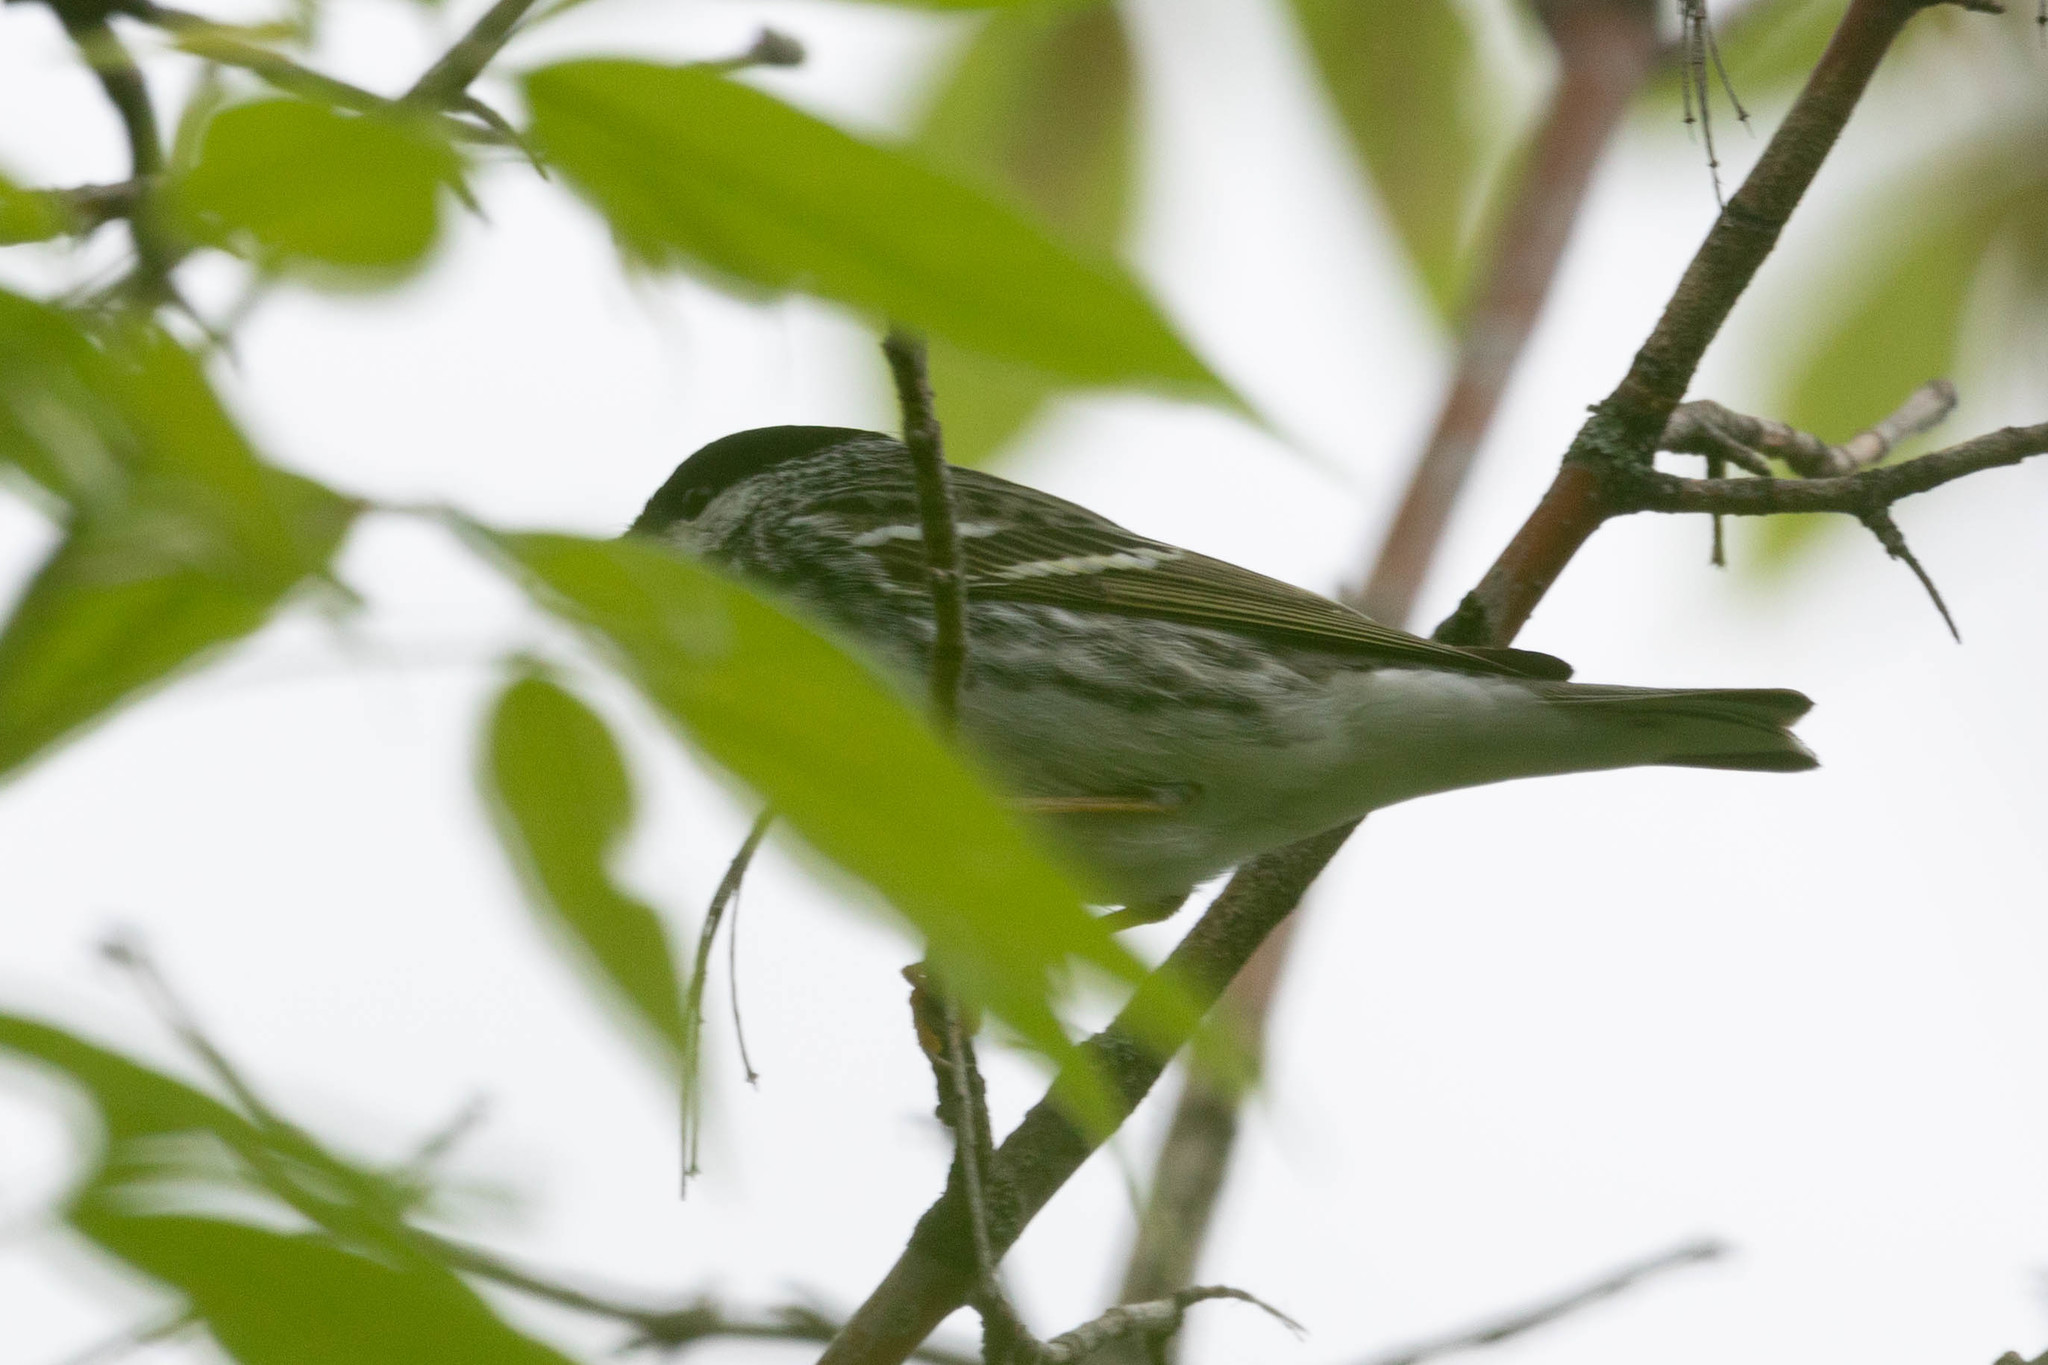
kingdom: Animalia
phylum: Chordata
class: Aves
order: Passeriformes
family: Parulidae
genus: Setophaga
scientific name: Setophaga striata
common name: Blackpoll warbler
